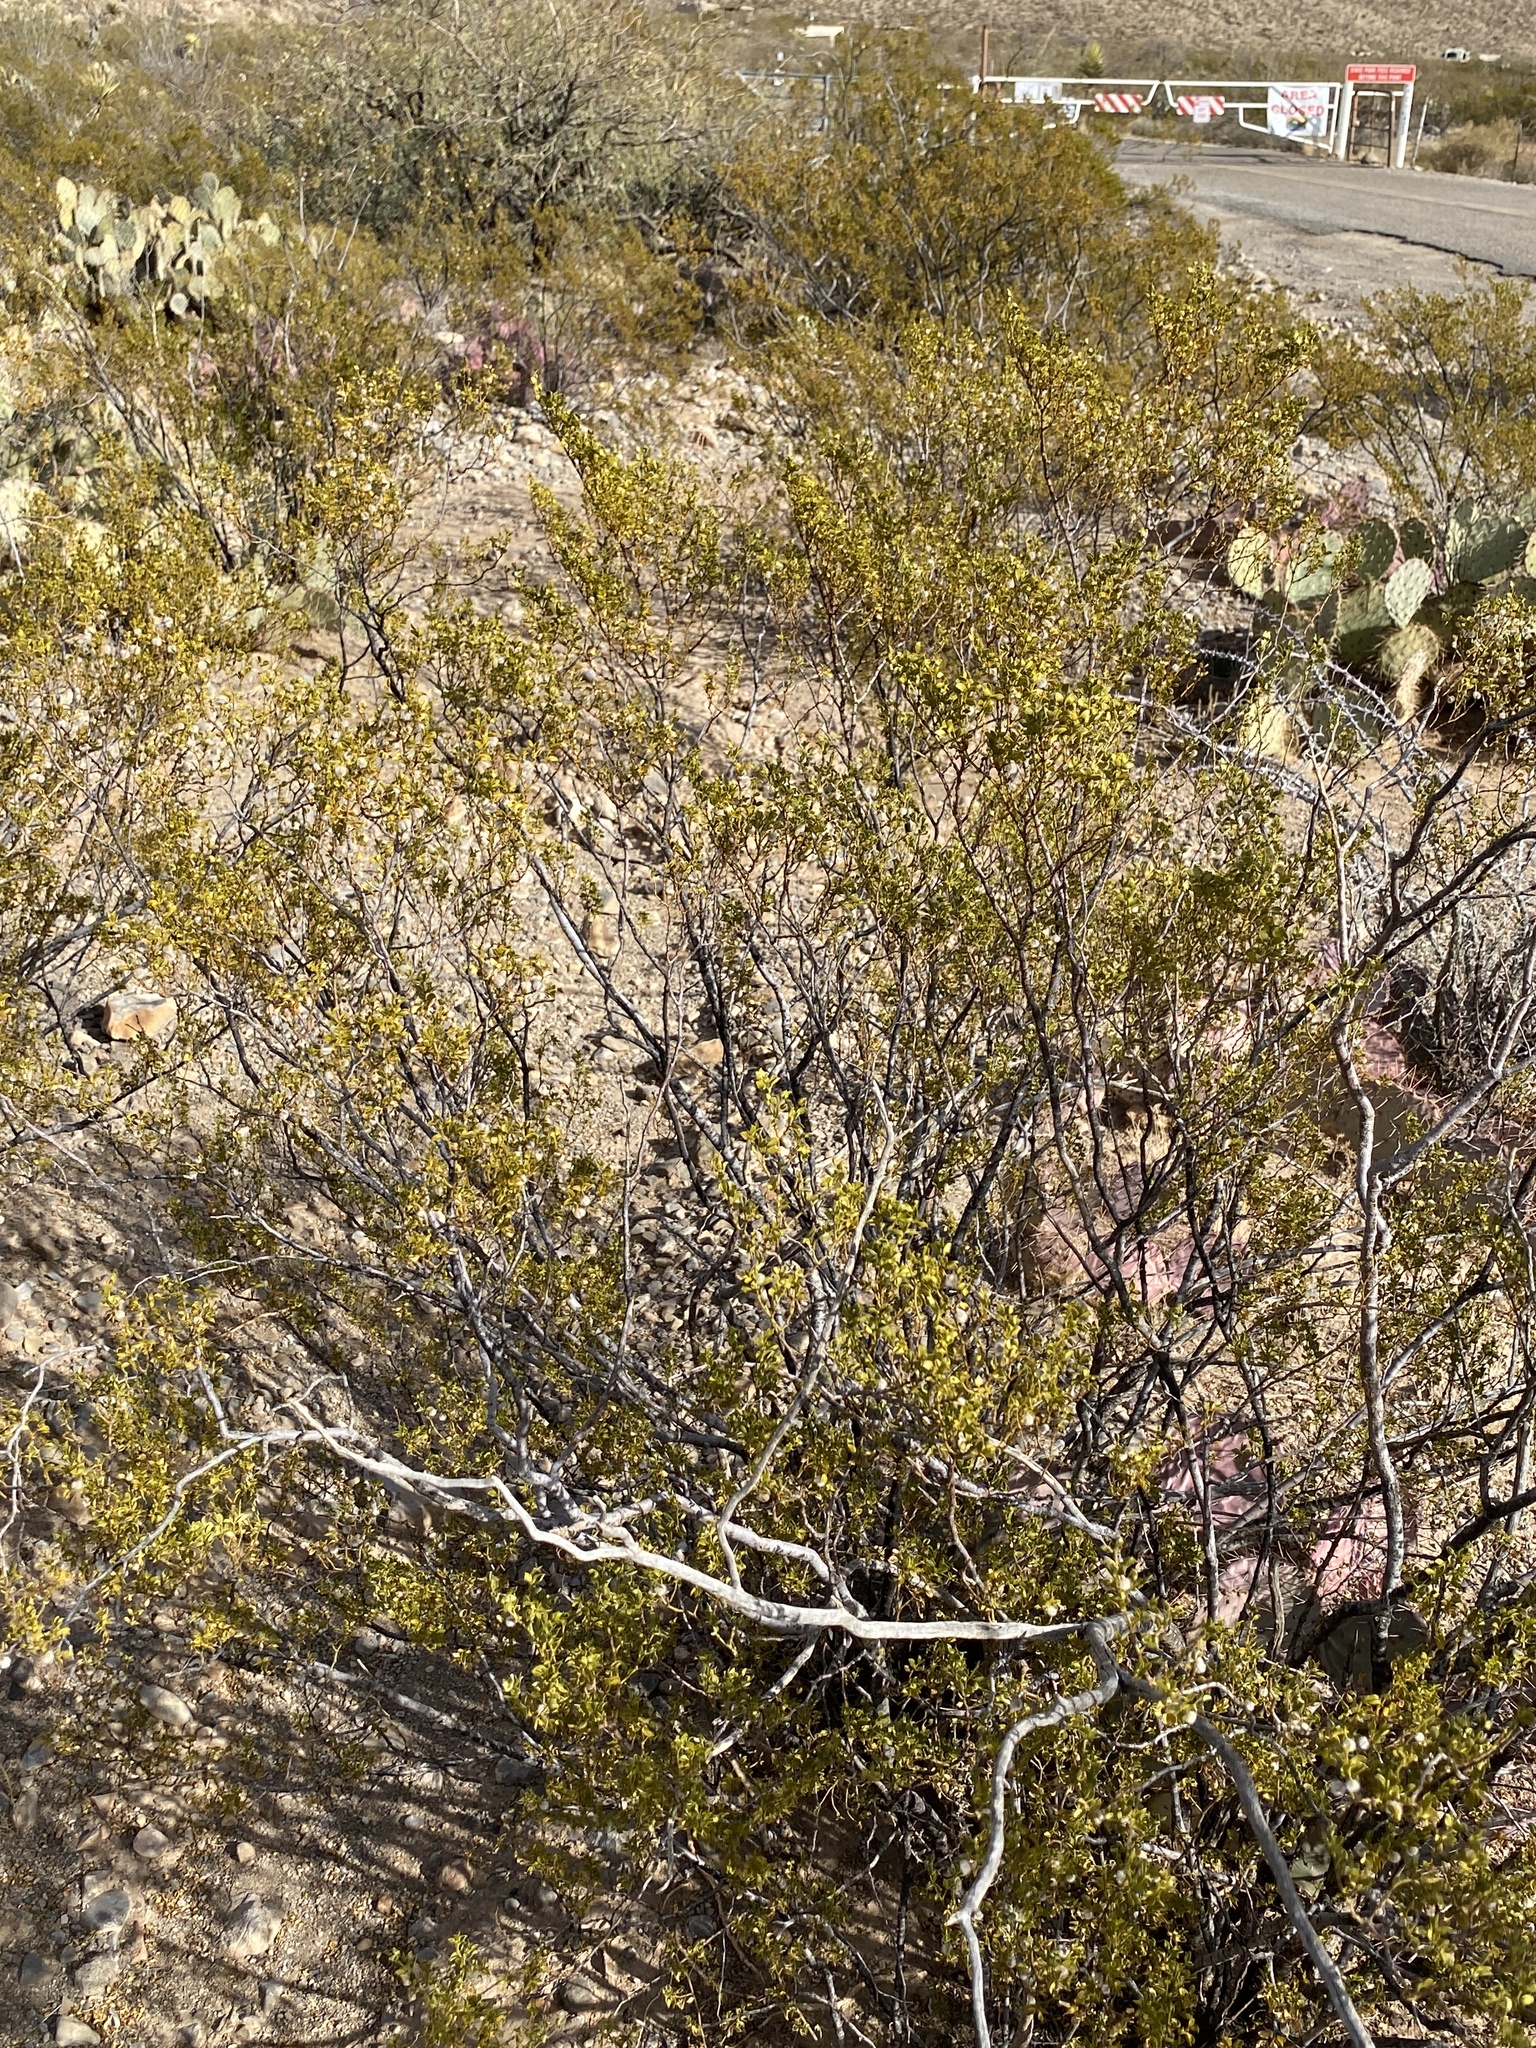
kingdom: Plantae
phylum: Tracheophyta
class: Magnoliopsida
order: Zygophyllales
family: Zygophyllaceae
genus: Larrea
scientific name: Larrea tridentata
